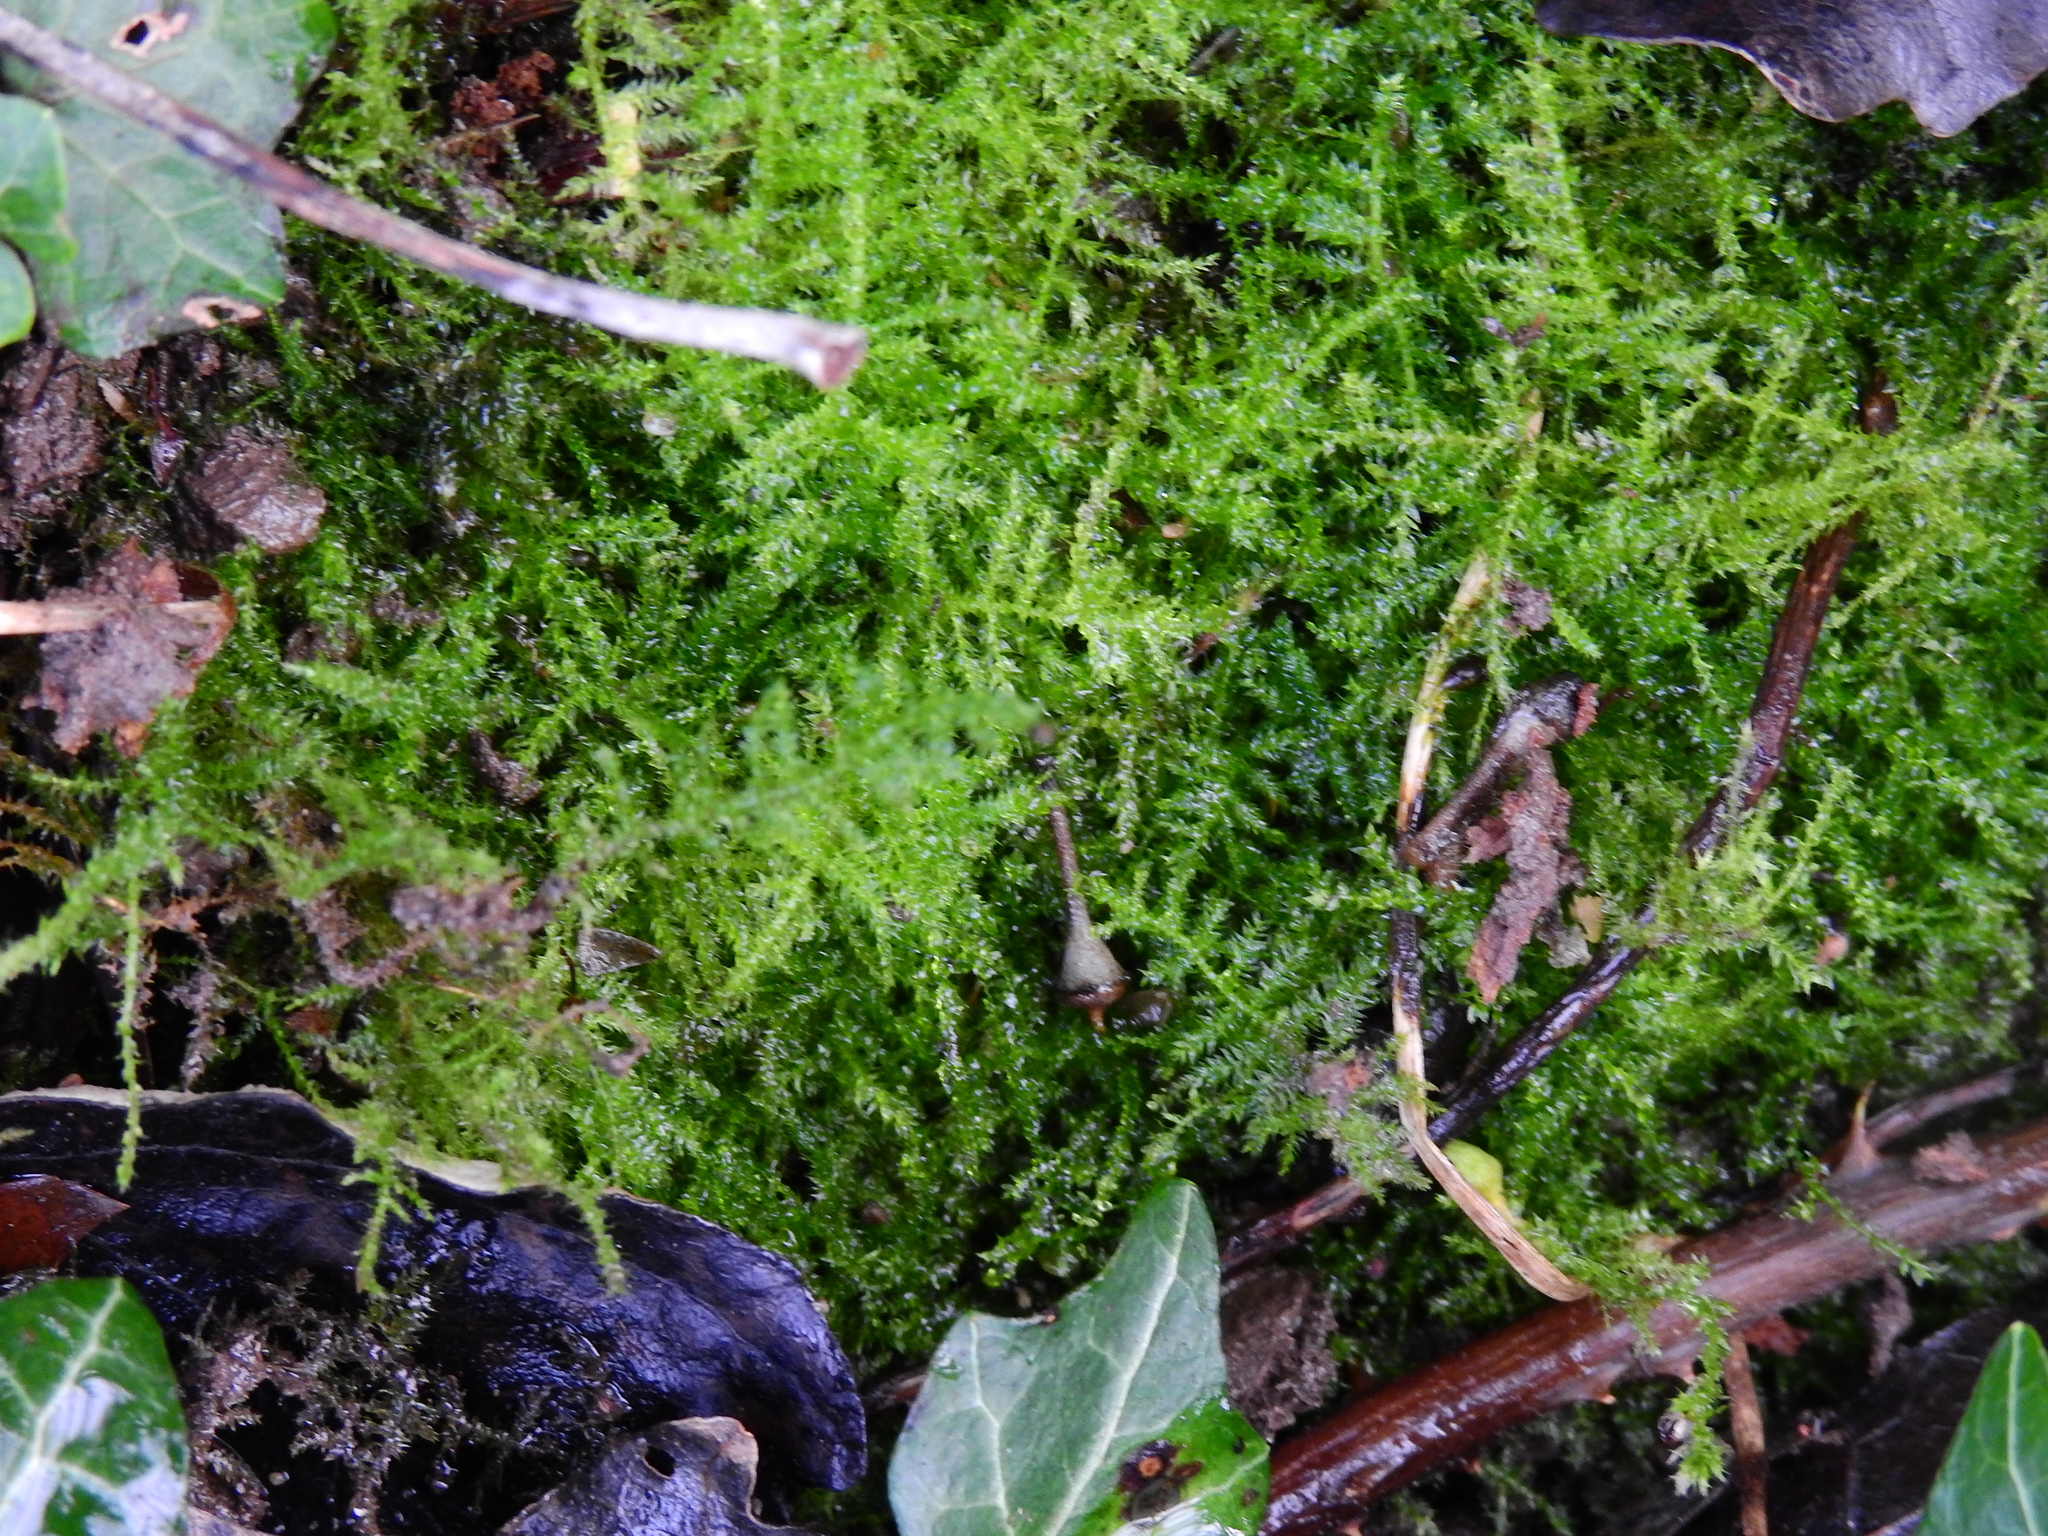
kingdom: Plantae
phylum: Bryophyta
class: Bryopsida
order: Hypnales
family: Brachytheciaceae
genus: Kindbergia
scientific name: Kindbergia praelonga
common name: Slender beaked moss
